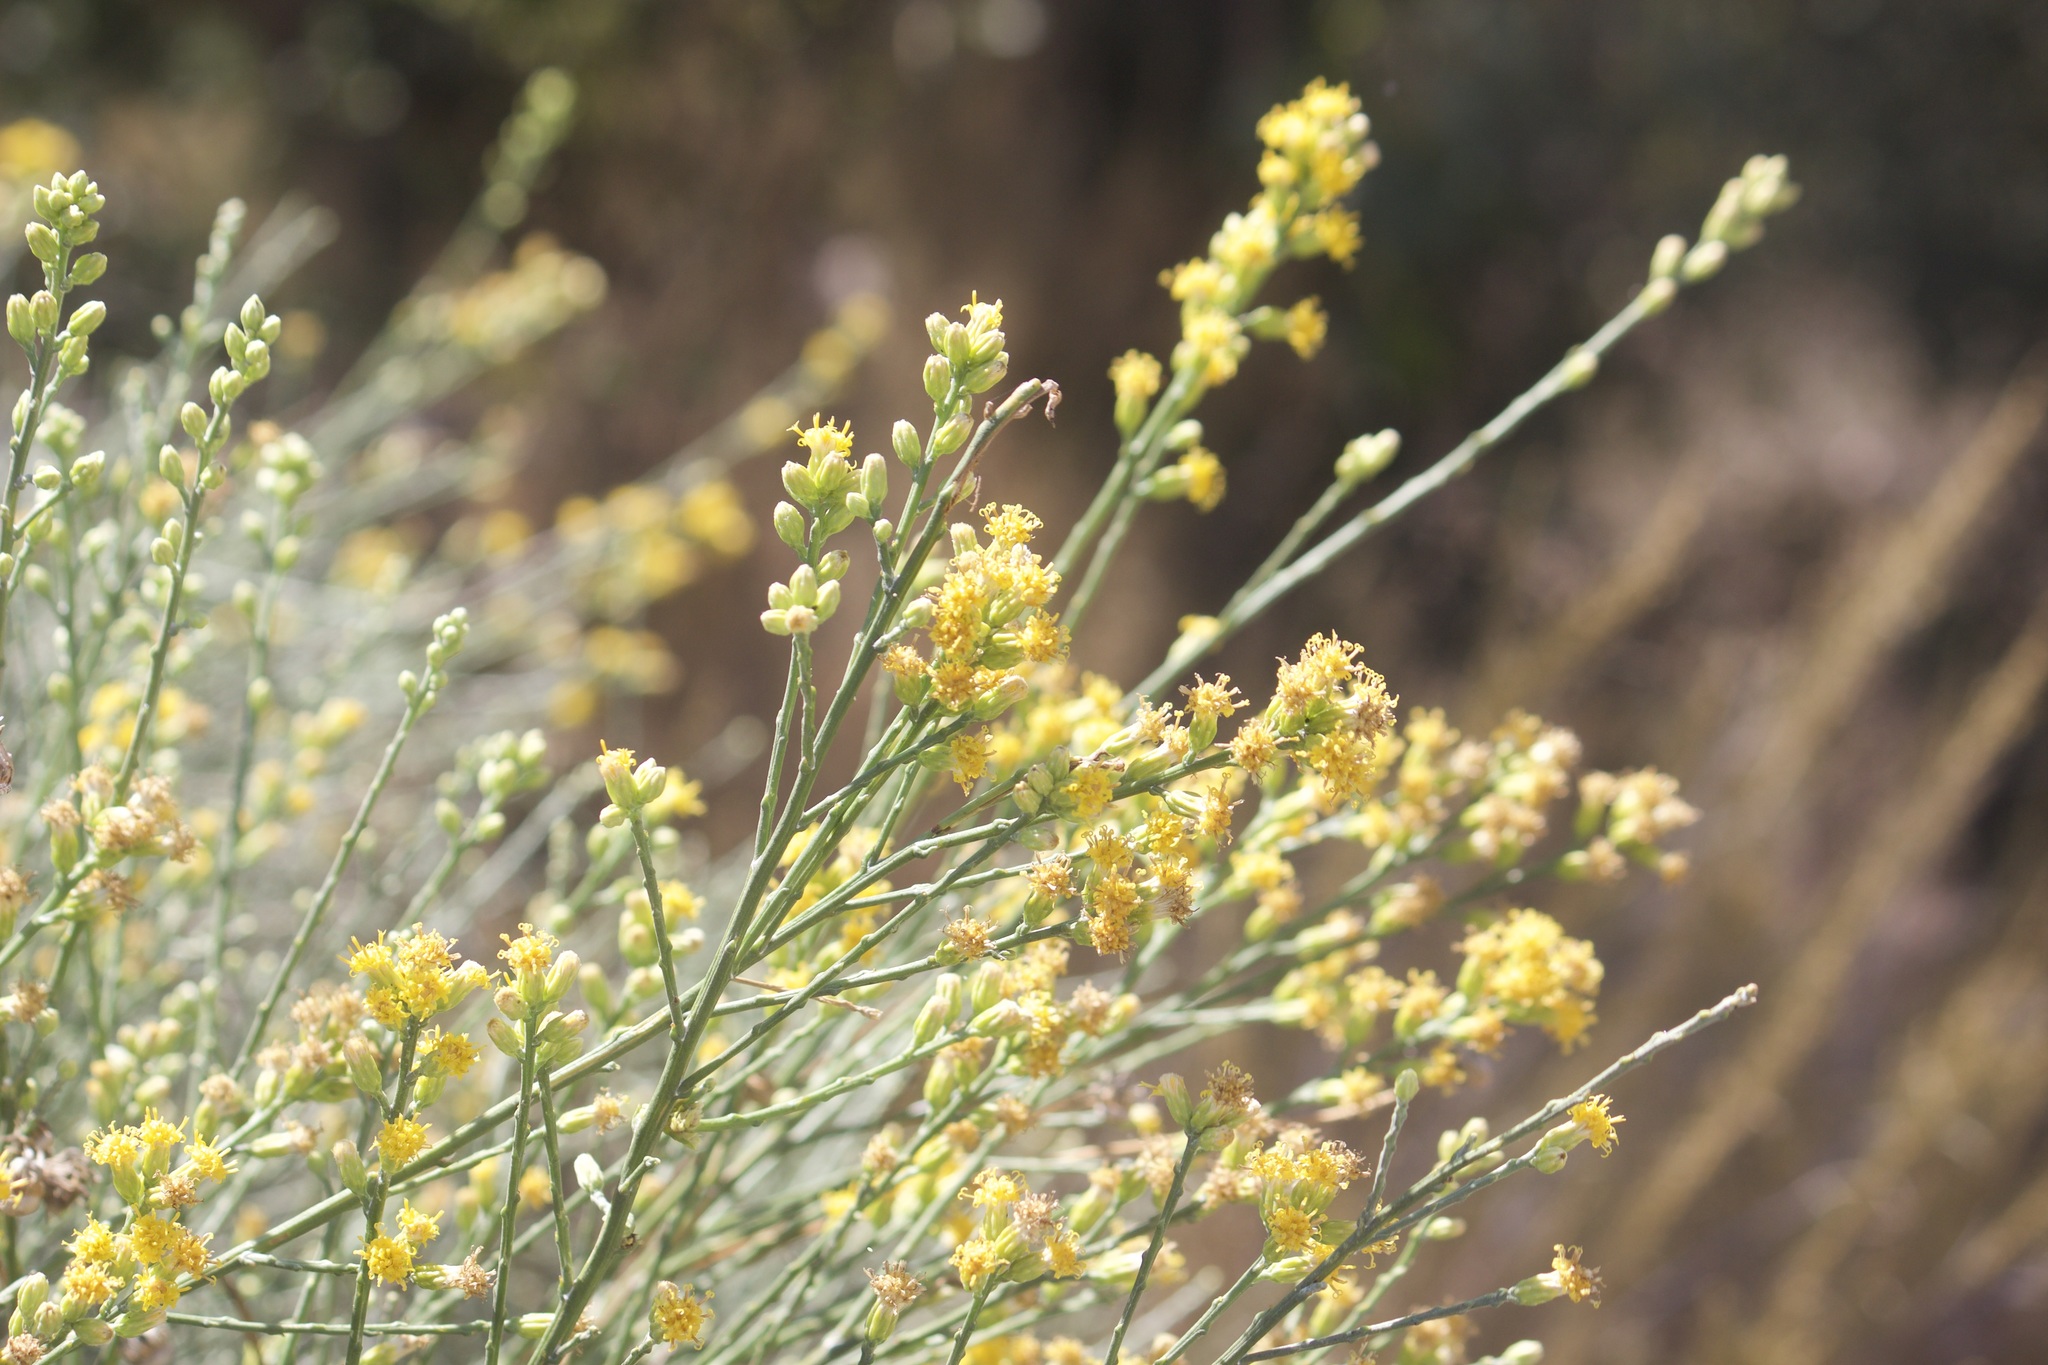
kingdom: Plantae
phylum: Tracheophyta
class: Magnoliopsida
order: Asterales
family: Asteraceae
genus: Lepidospartum
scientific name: Lepidospartum squamatum
